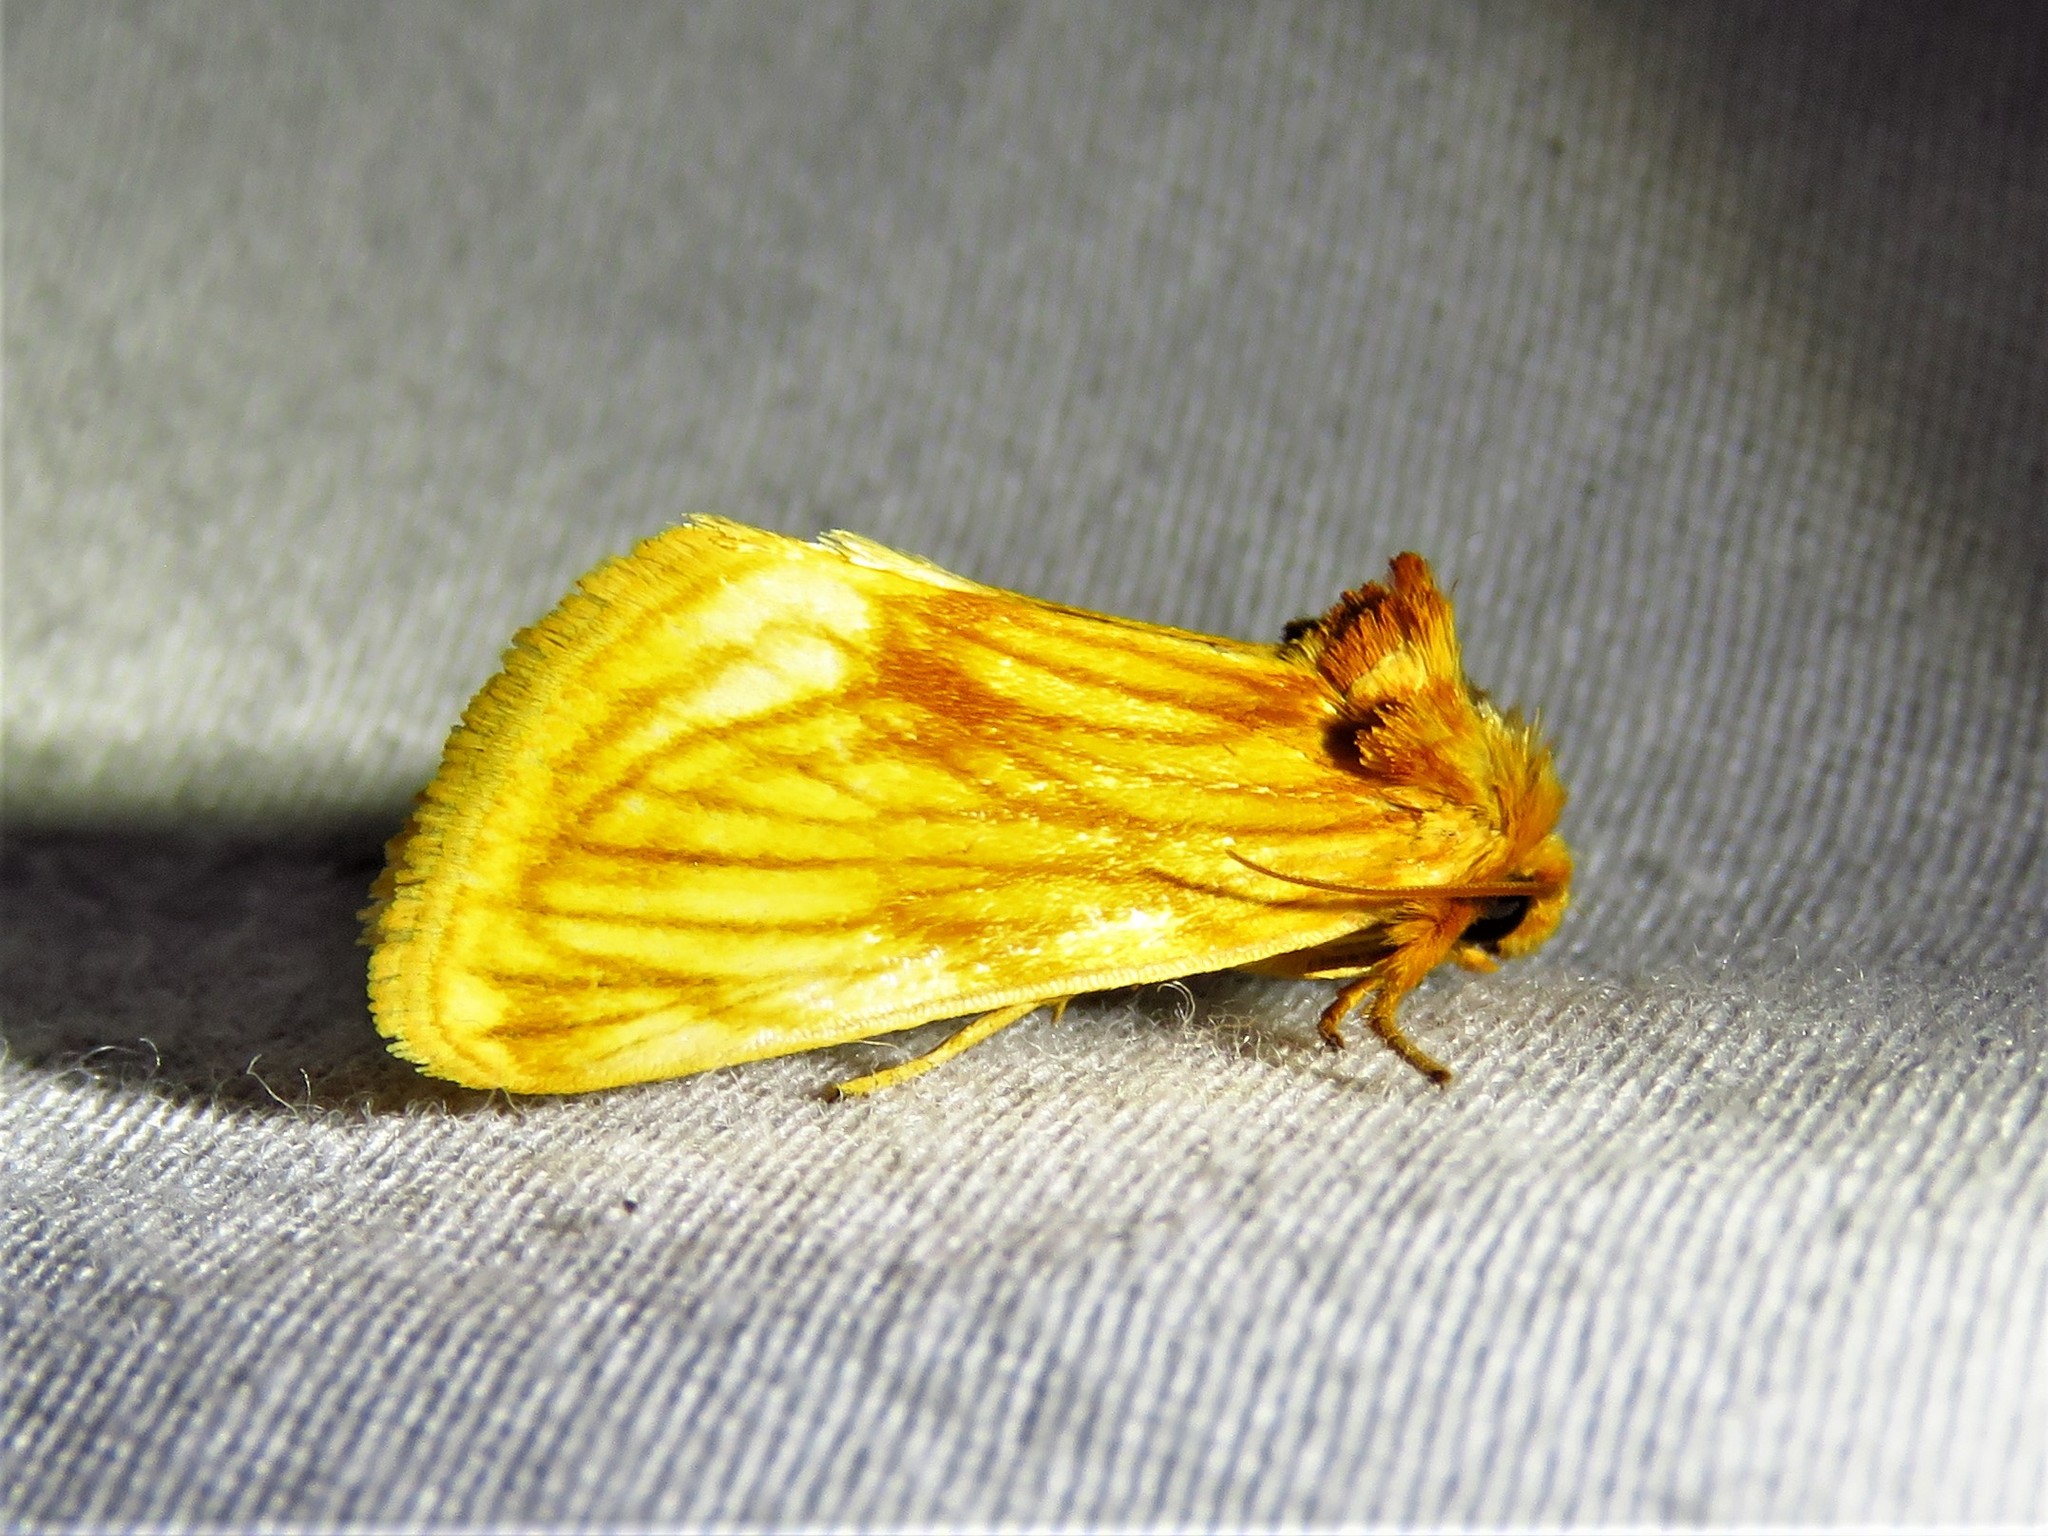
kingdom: Animalia
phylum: Arthropoda
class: Insecta
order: Lepidoptera
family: Noctuidae
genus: Cirrhophanus
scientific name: Cirrhophanus pretiosa
